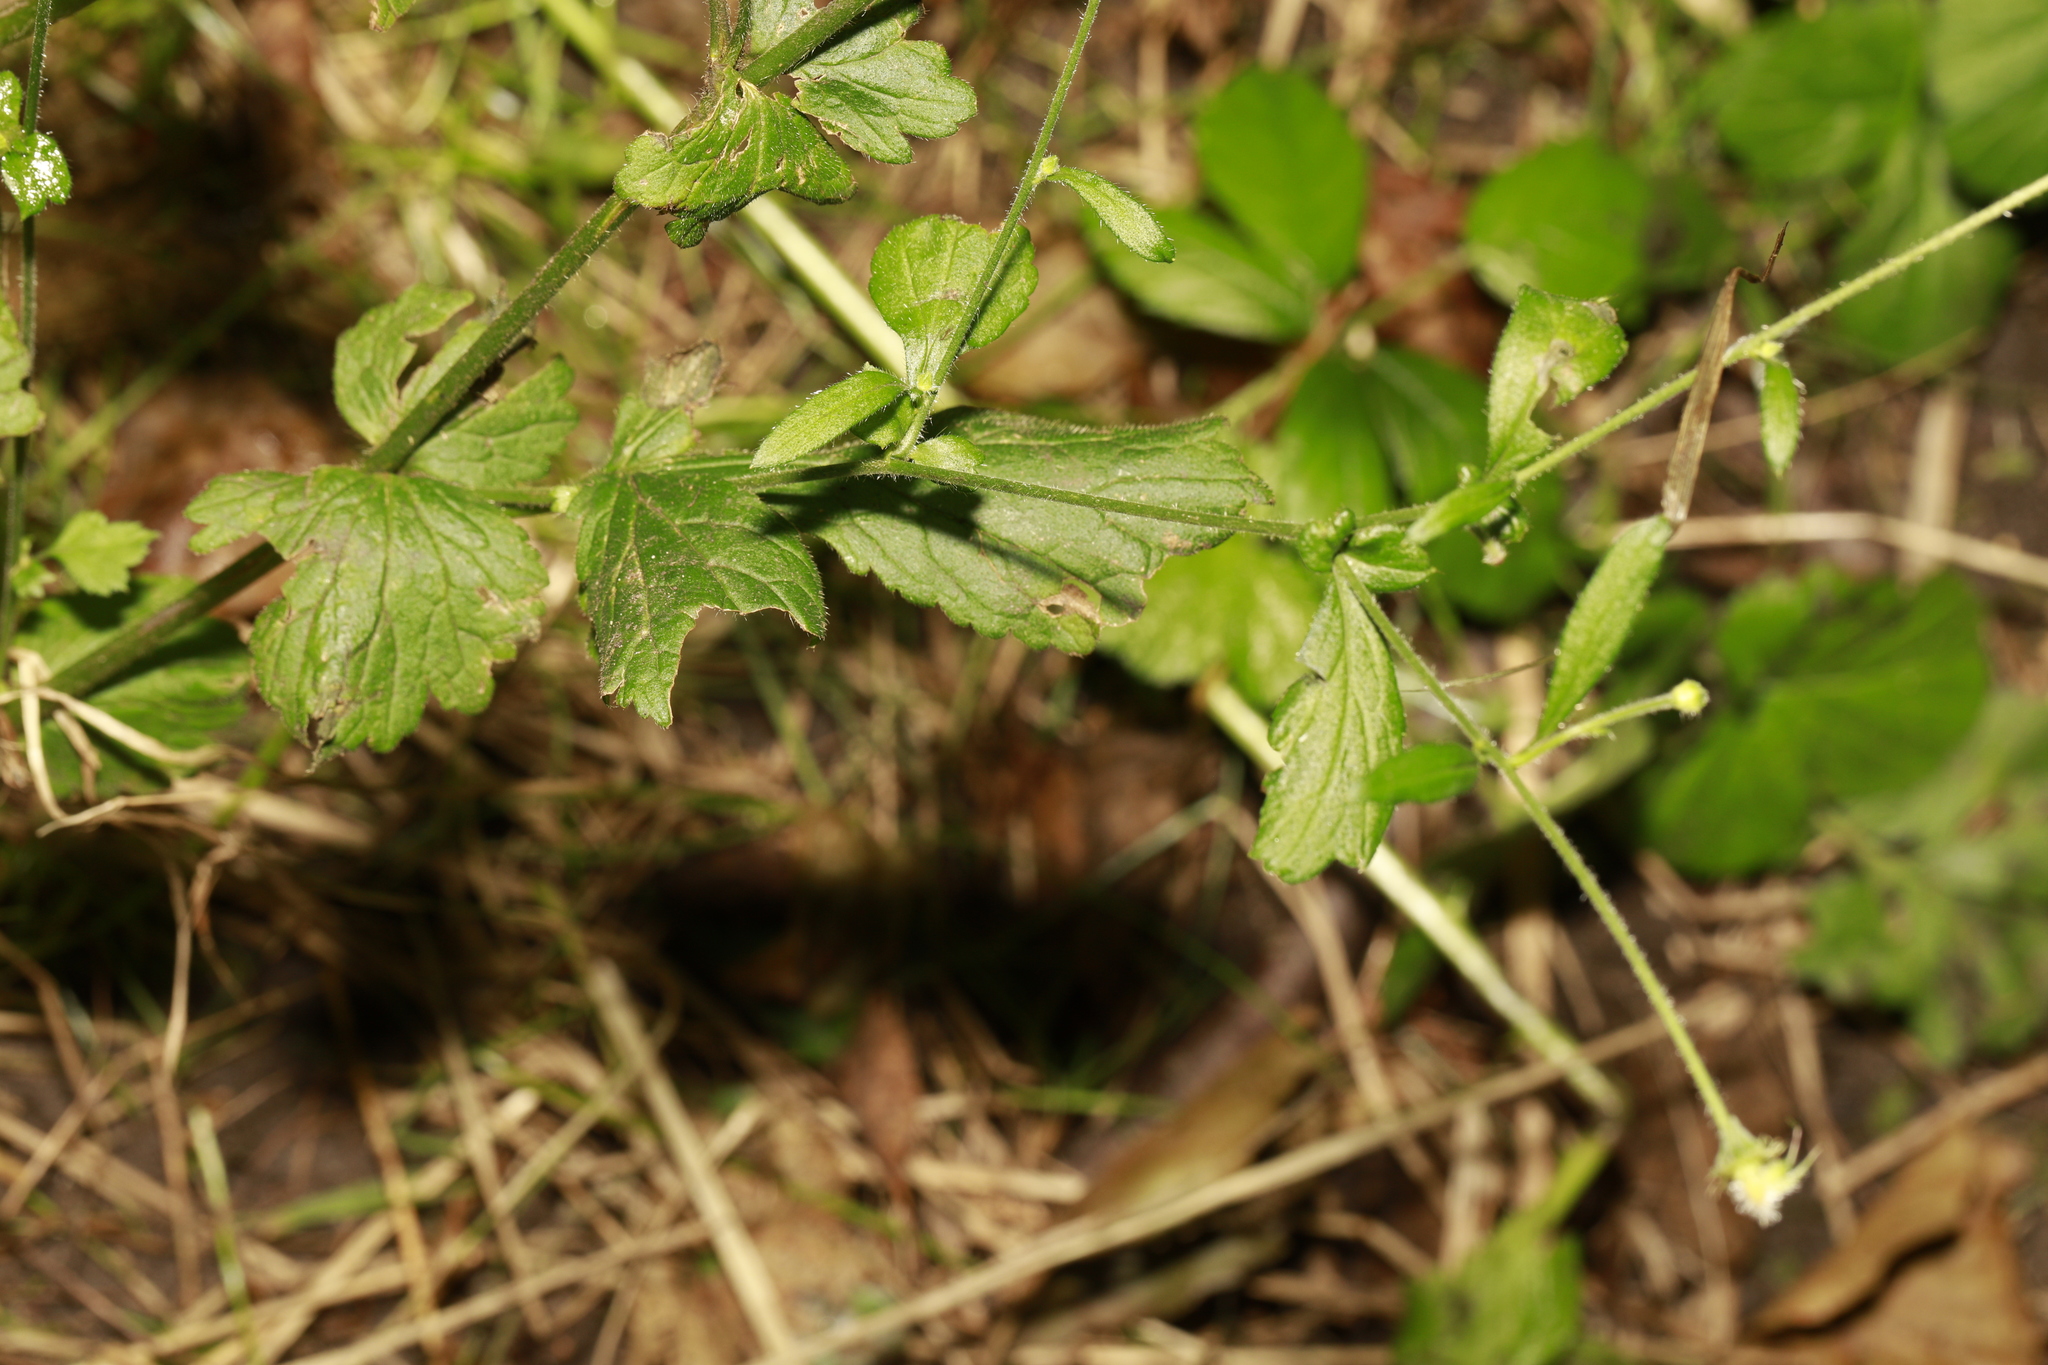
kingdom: Plantae
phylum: Tracheophyta
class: Magnoliopsida
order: Rosales
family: Rosaceae
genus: Geum
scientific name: Geum urbanum
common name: Wood avens
